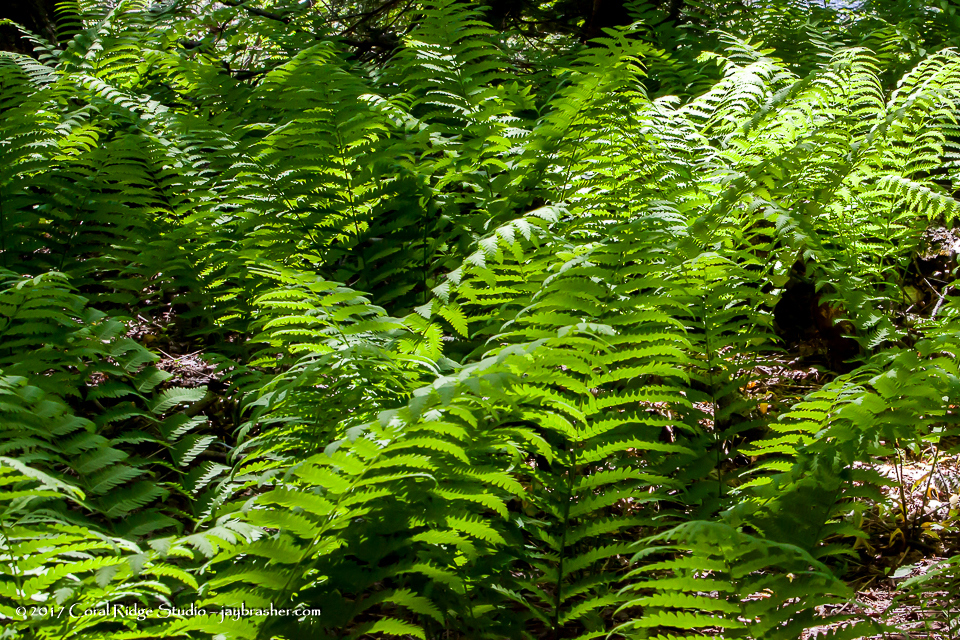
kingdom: Plantae
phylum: Tracheophyta
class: Polypodiopsida
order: Osmundales
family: Osmundaceae
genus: Claytosmunda
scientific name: Claytosmunda claytoniana
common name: Clayton's fern
